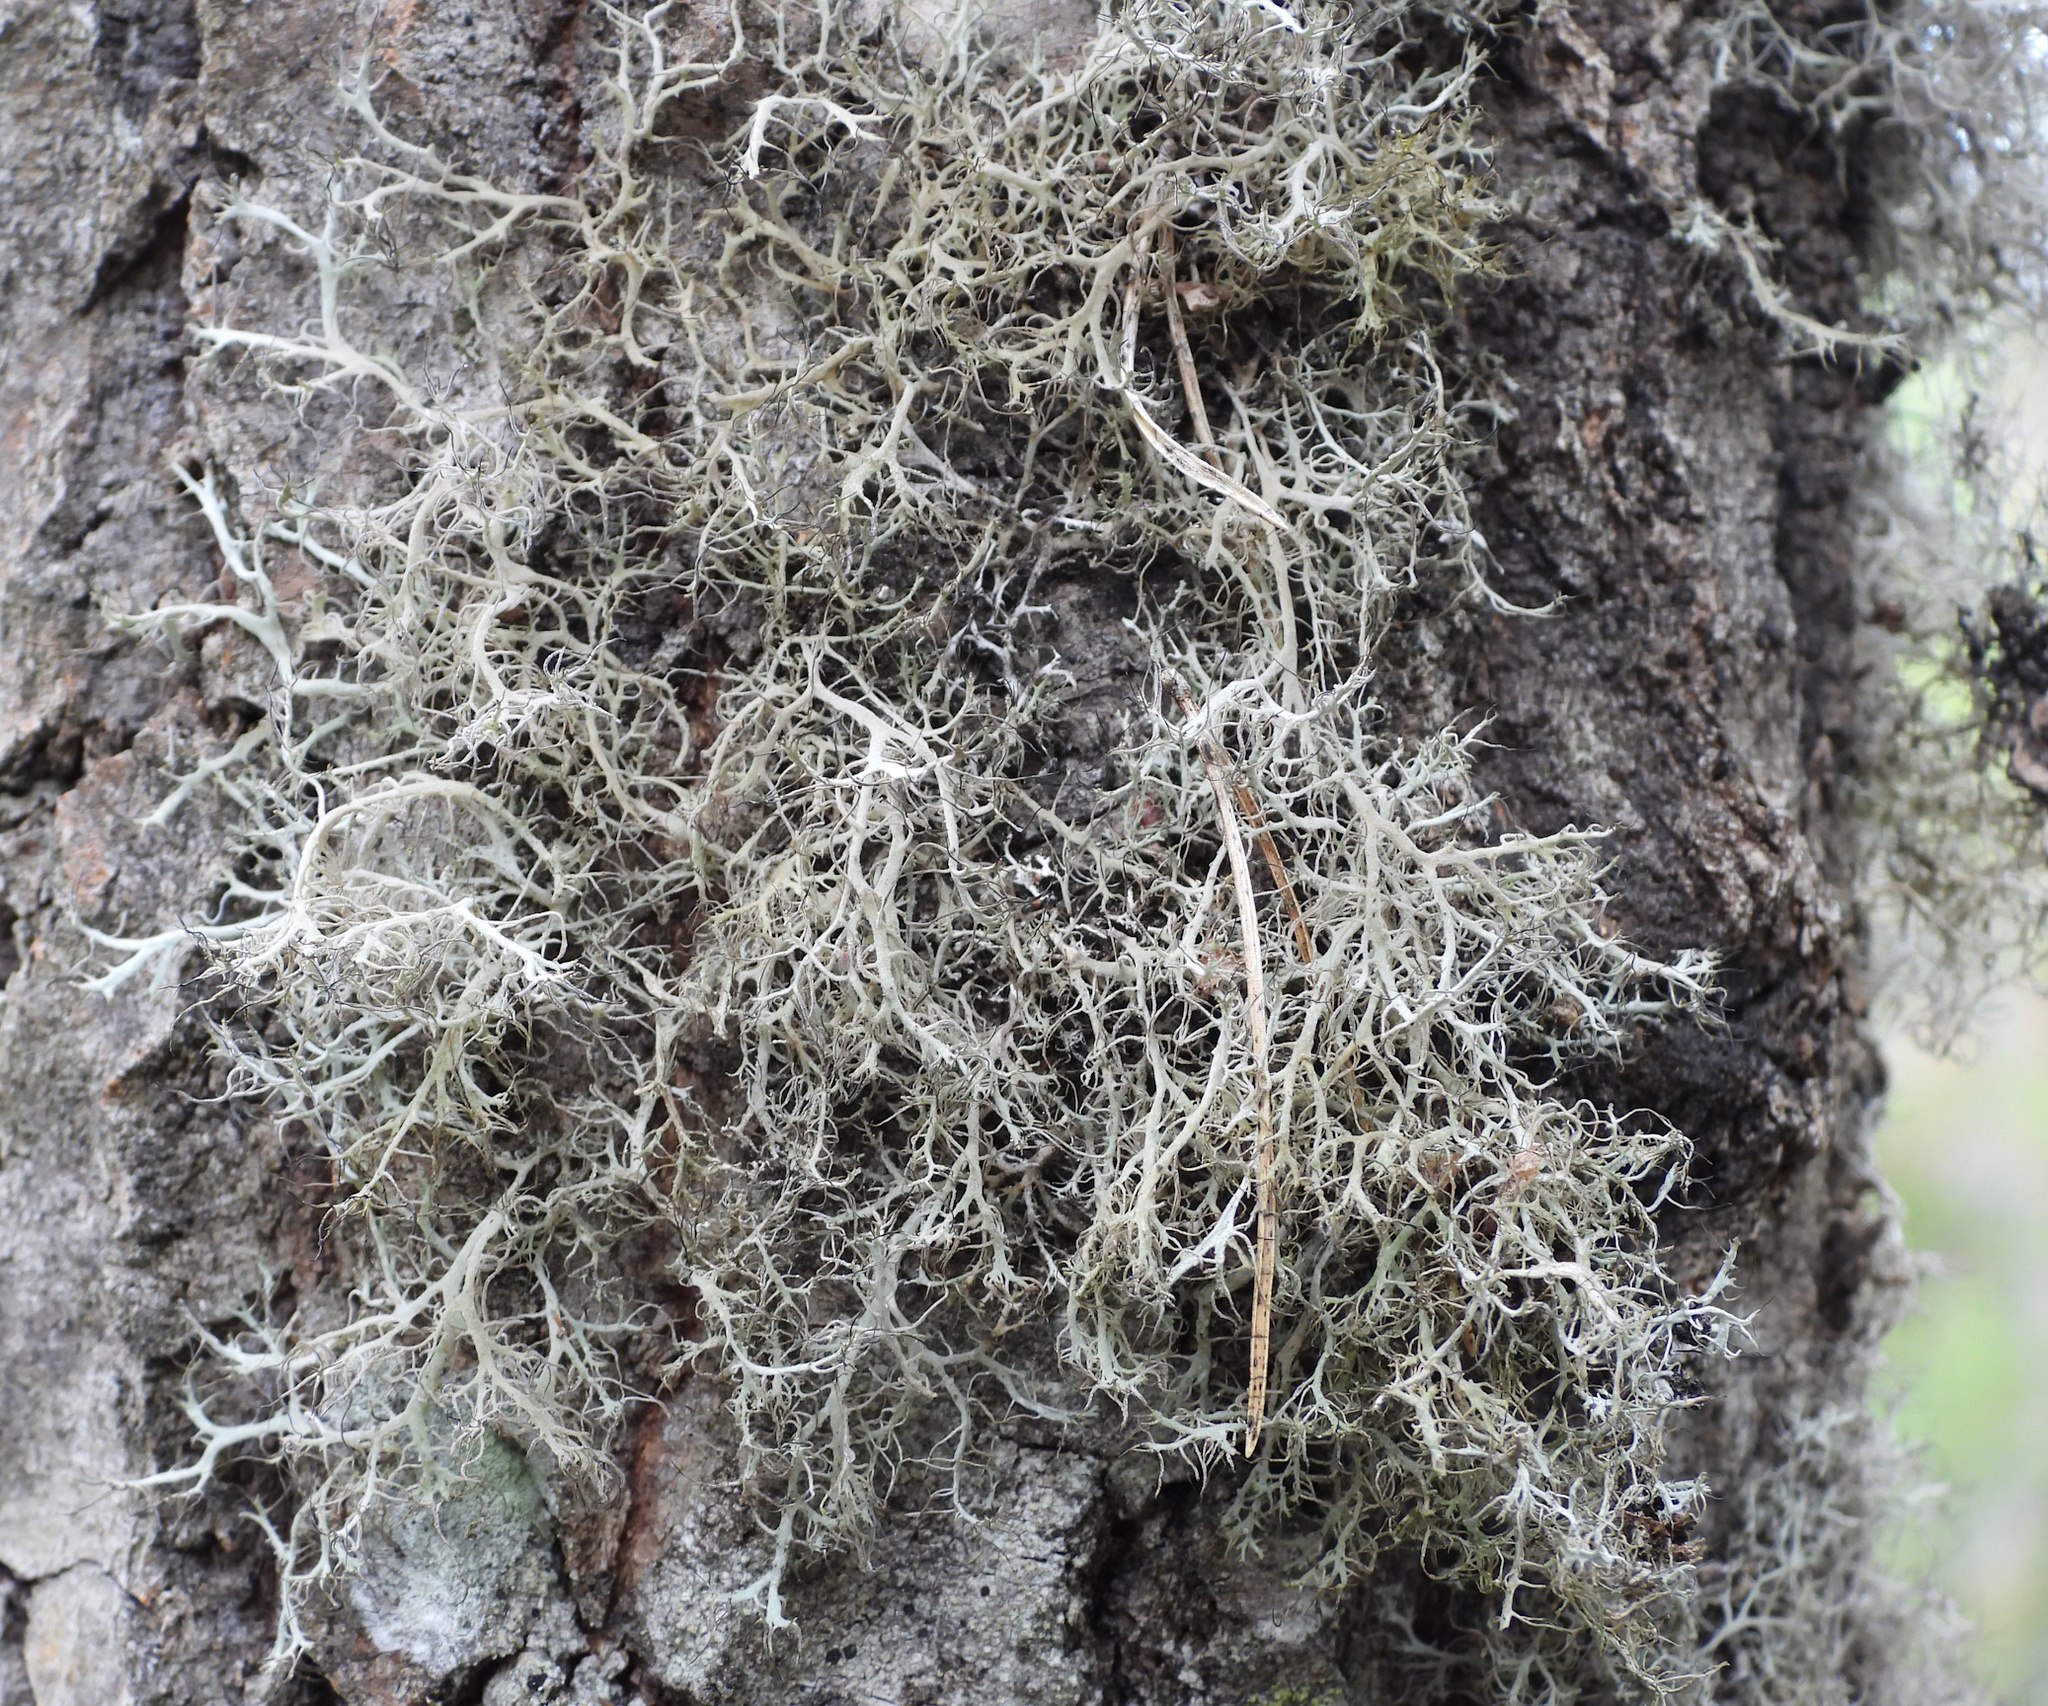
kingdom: Fungi
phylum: Ascomycota
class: Lecanoromycetes
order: Caliciales
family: Physciaceae
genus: Anaptychia
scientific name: Anaptychia ciliaris
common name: Great ciliated lichen
